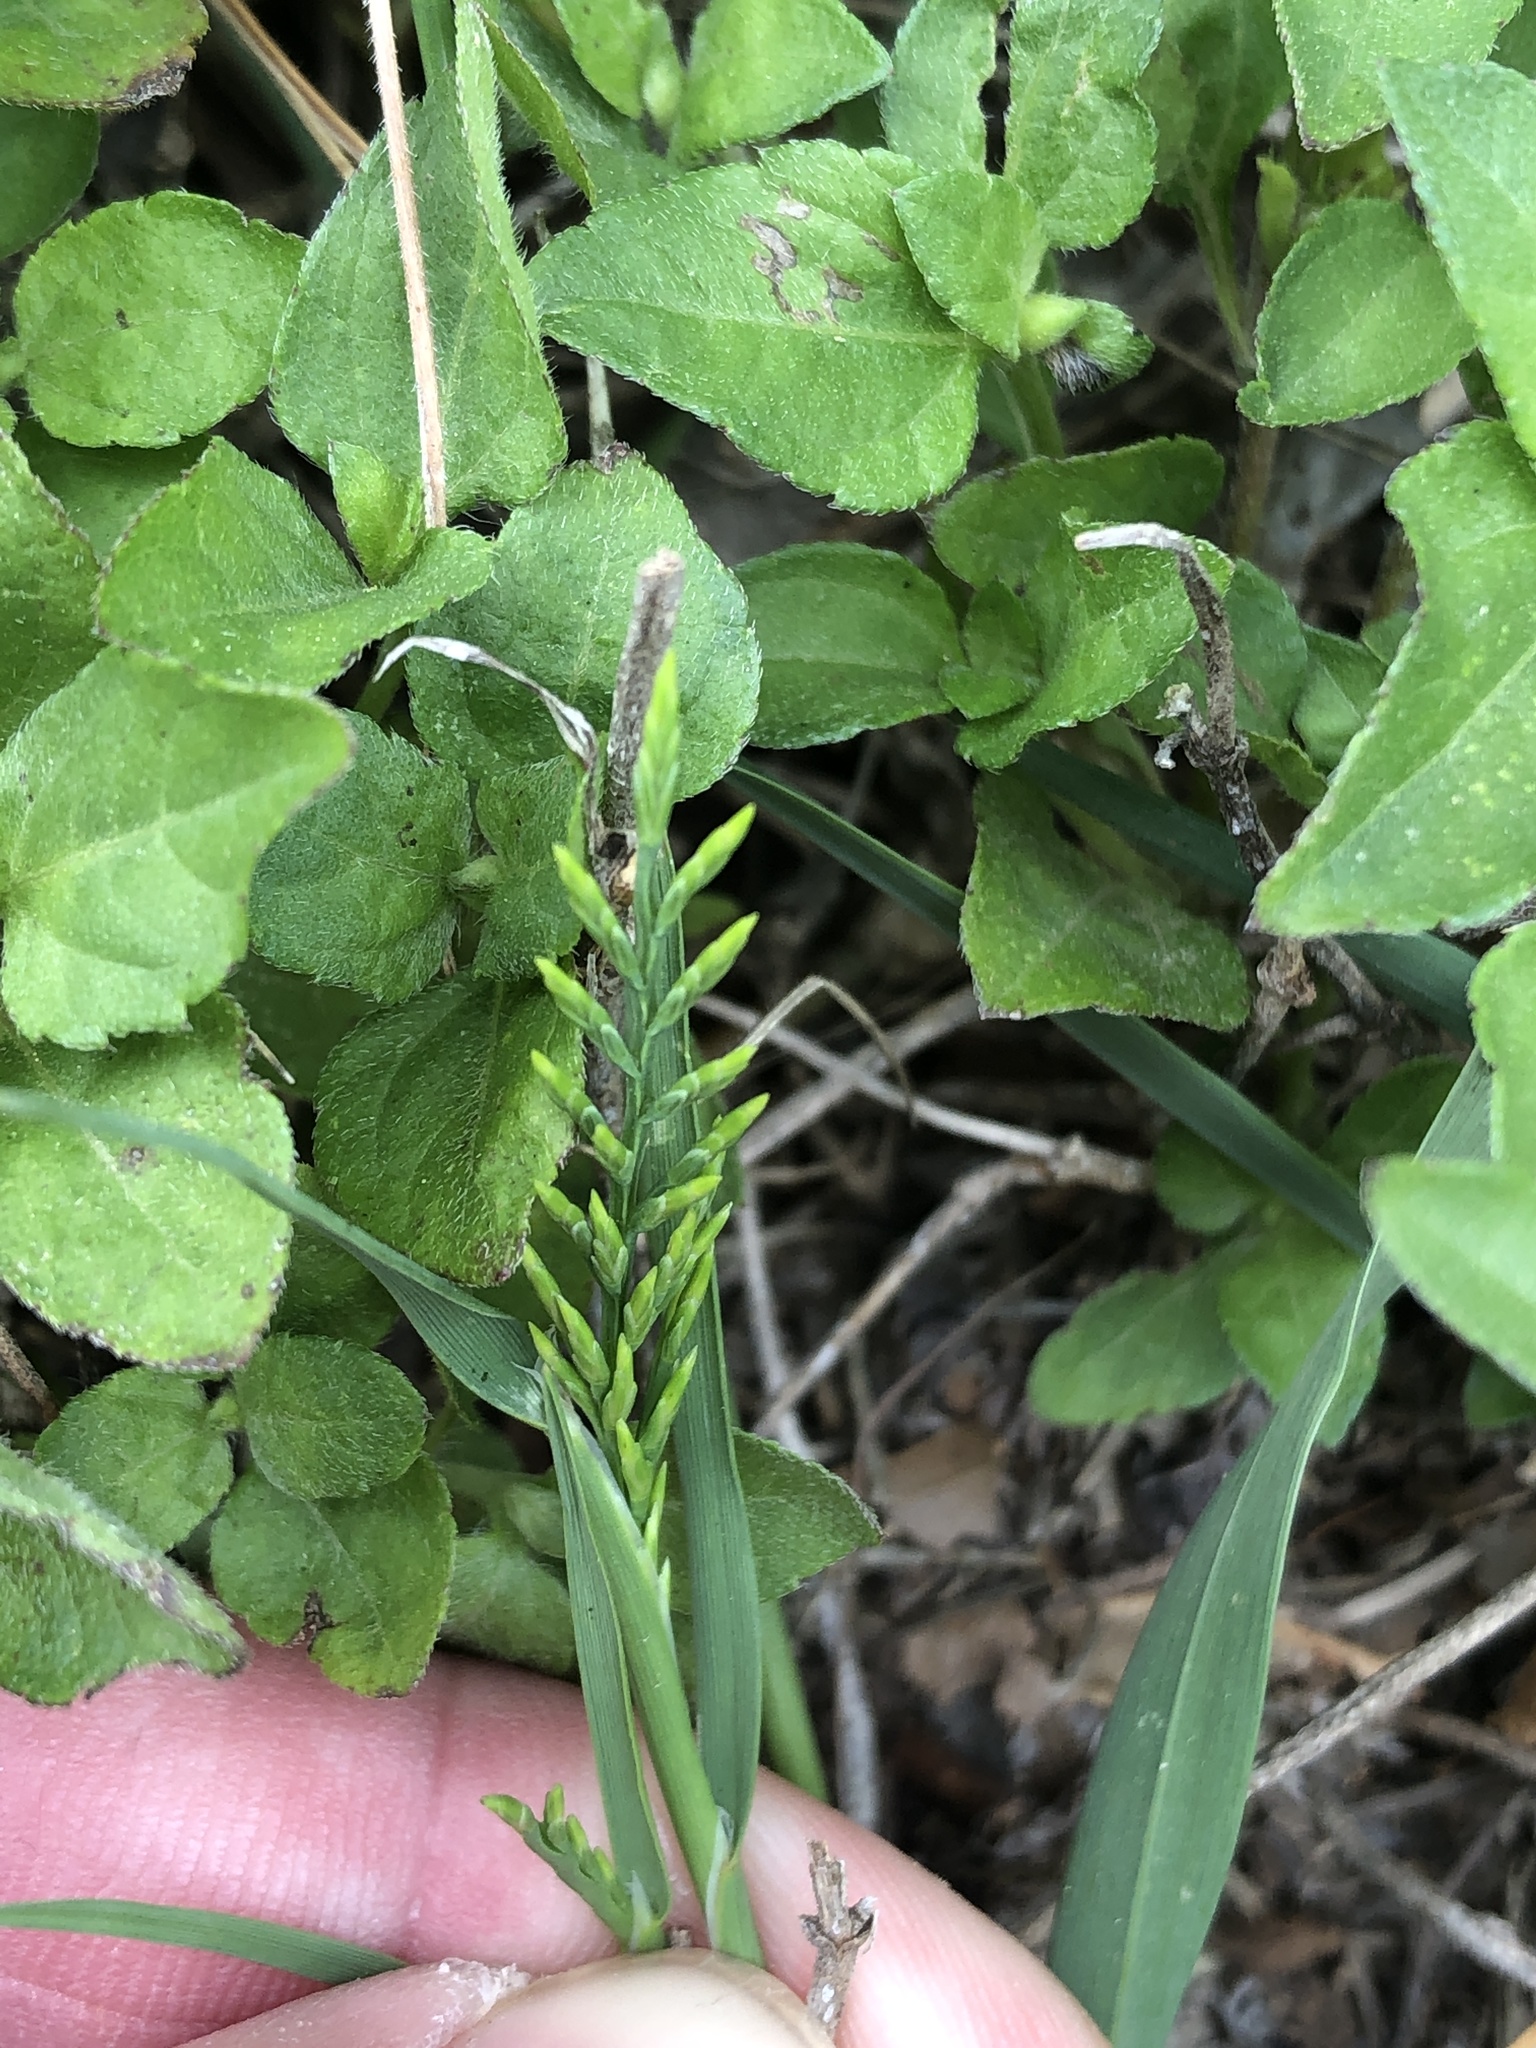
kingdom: Plantae
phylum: Tracheophyta
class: Liliopsida
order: Poales
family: Poaceae
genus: Catapodium
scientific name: Catapodium rigidum
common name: Fern-grass
